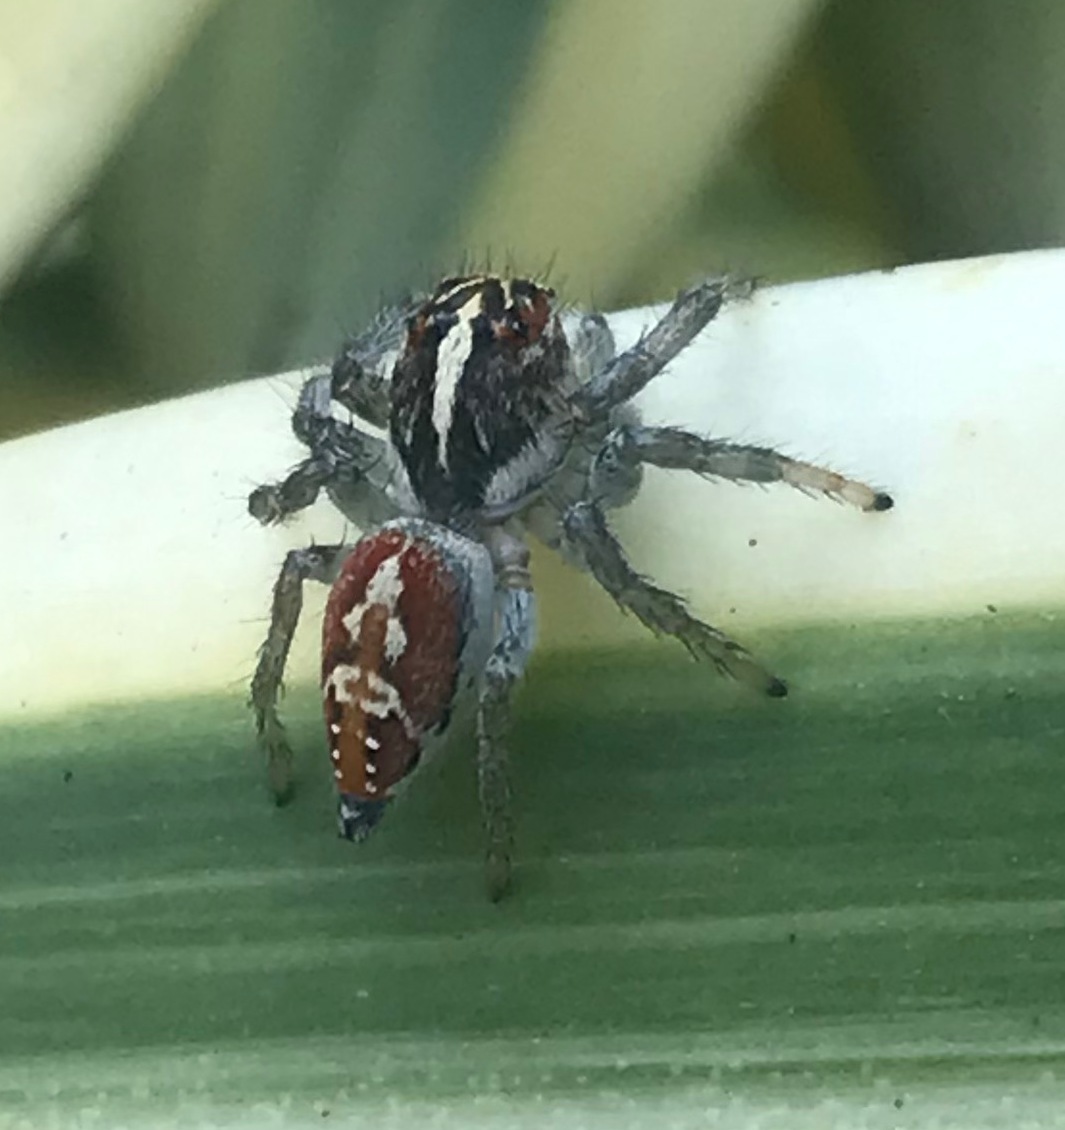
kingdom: Animalia
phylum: Arthropoda
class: Arachnida
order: Araneae
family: Salticidae
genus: Frigga
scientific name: Frigga coronigera
